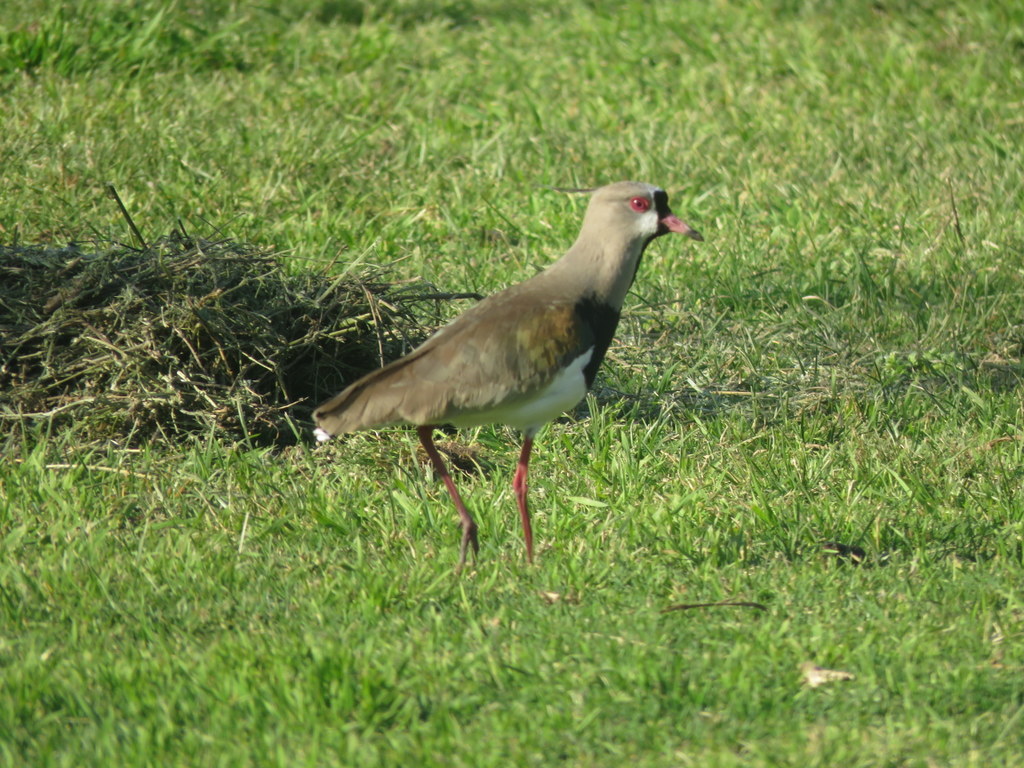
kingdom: Animalia
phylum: Chordata
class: Aves
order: Charadriiformes
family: Charadriidae
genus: Vanellus
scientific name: Vanellus chilensis
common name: Southern lapwing
